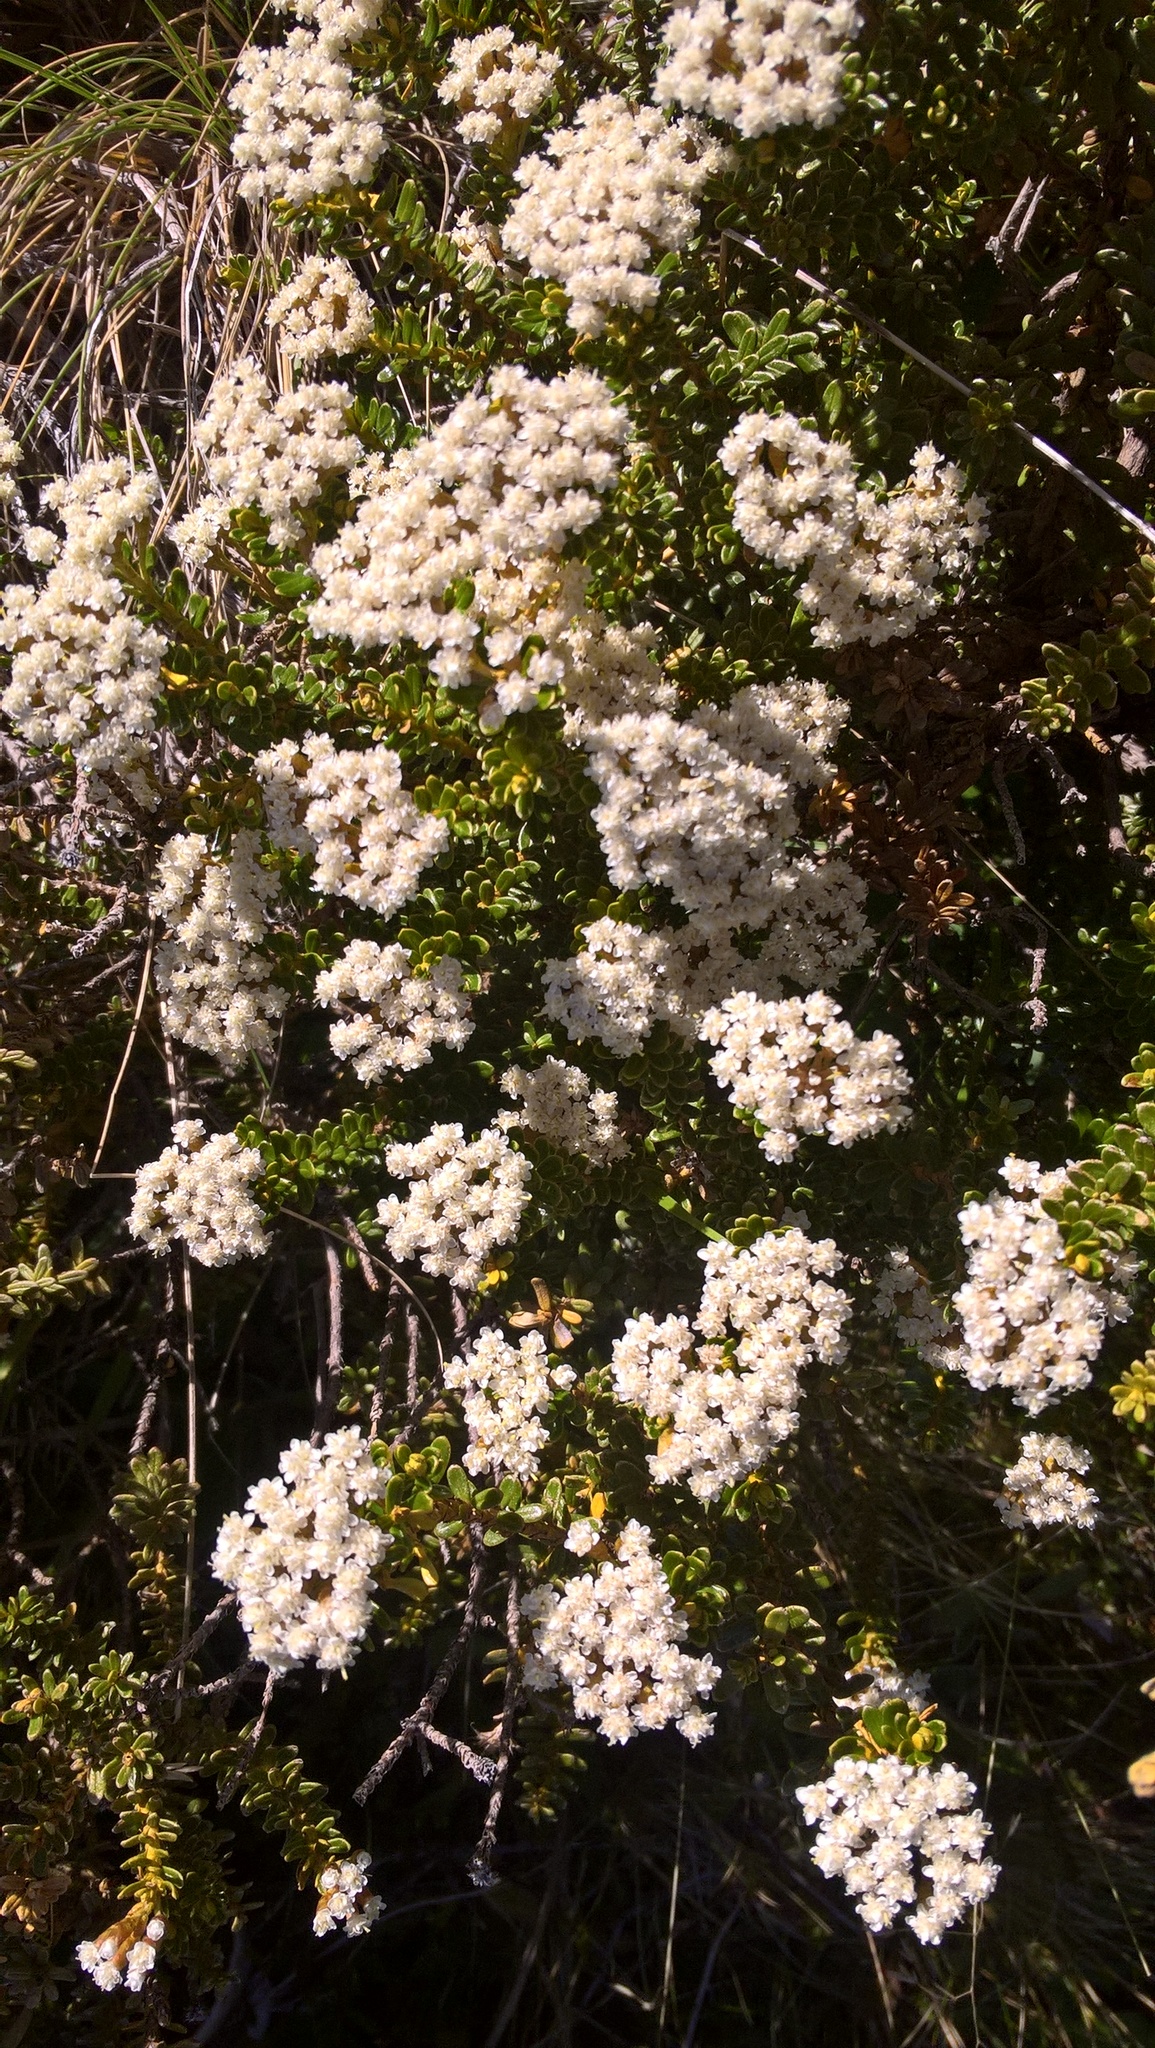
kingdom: Plantae
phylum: Tracheophyta
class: Magnoliopsida
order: Asterales
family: Asteraceae
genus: Ozothamnus
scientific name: Ozothamnus leptophyllus
